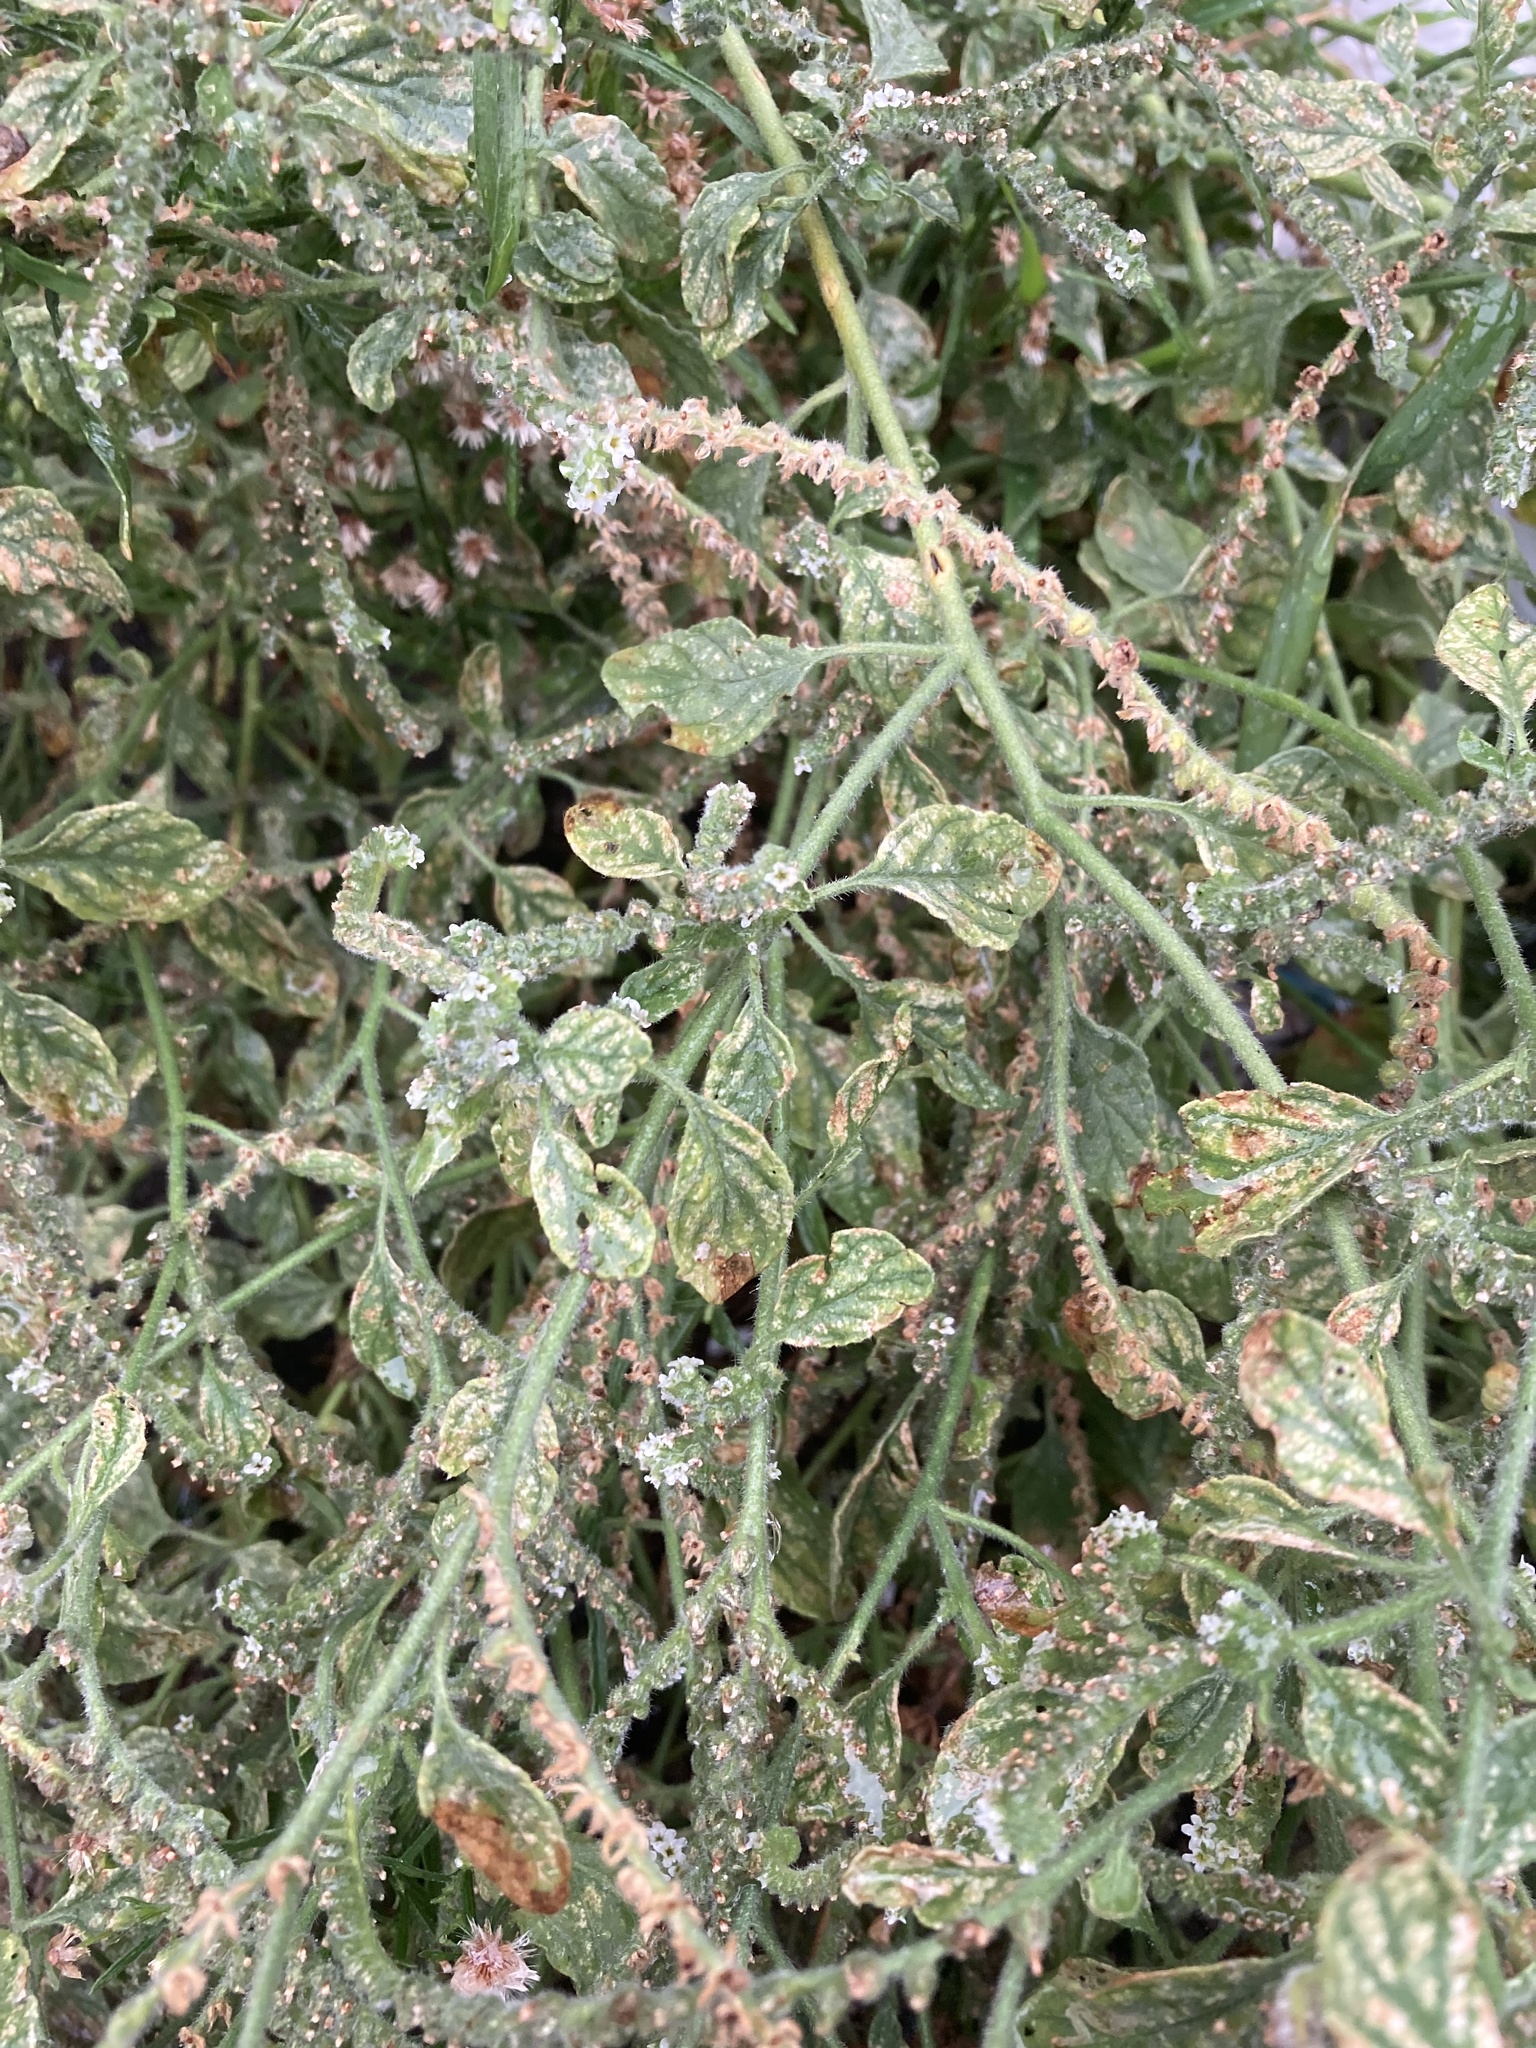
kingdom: Plantae
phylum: Tracheophyta
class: Magnoliopsida
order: Boraginales
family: Heliotropiaceae
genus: Heliotropium
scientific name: Heliotropium europaeum
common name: European heliotrope
